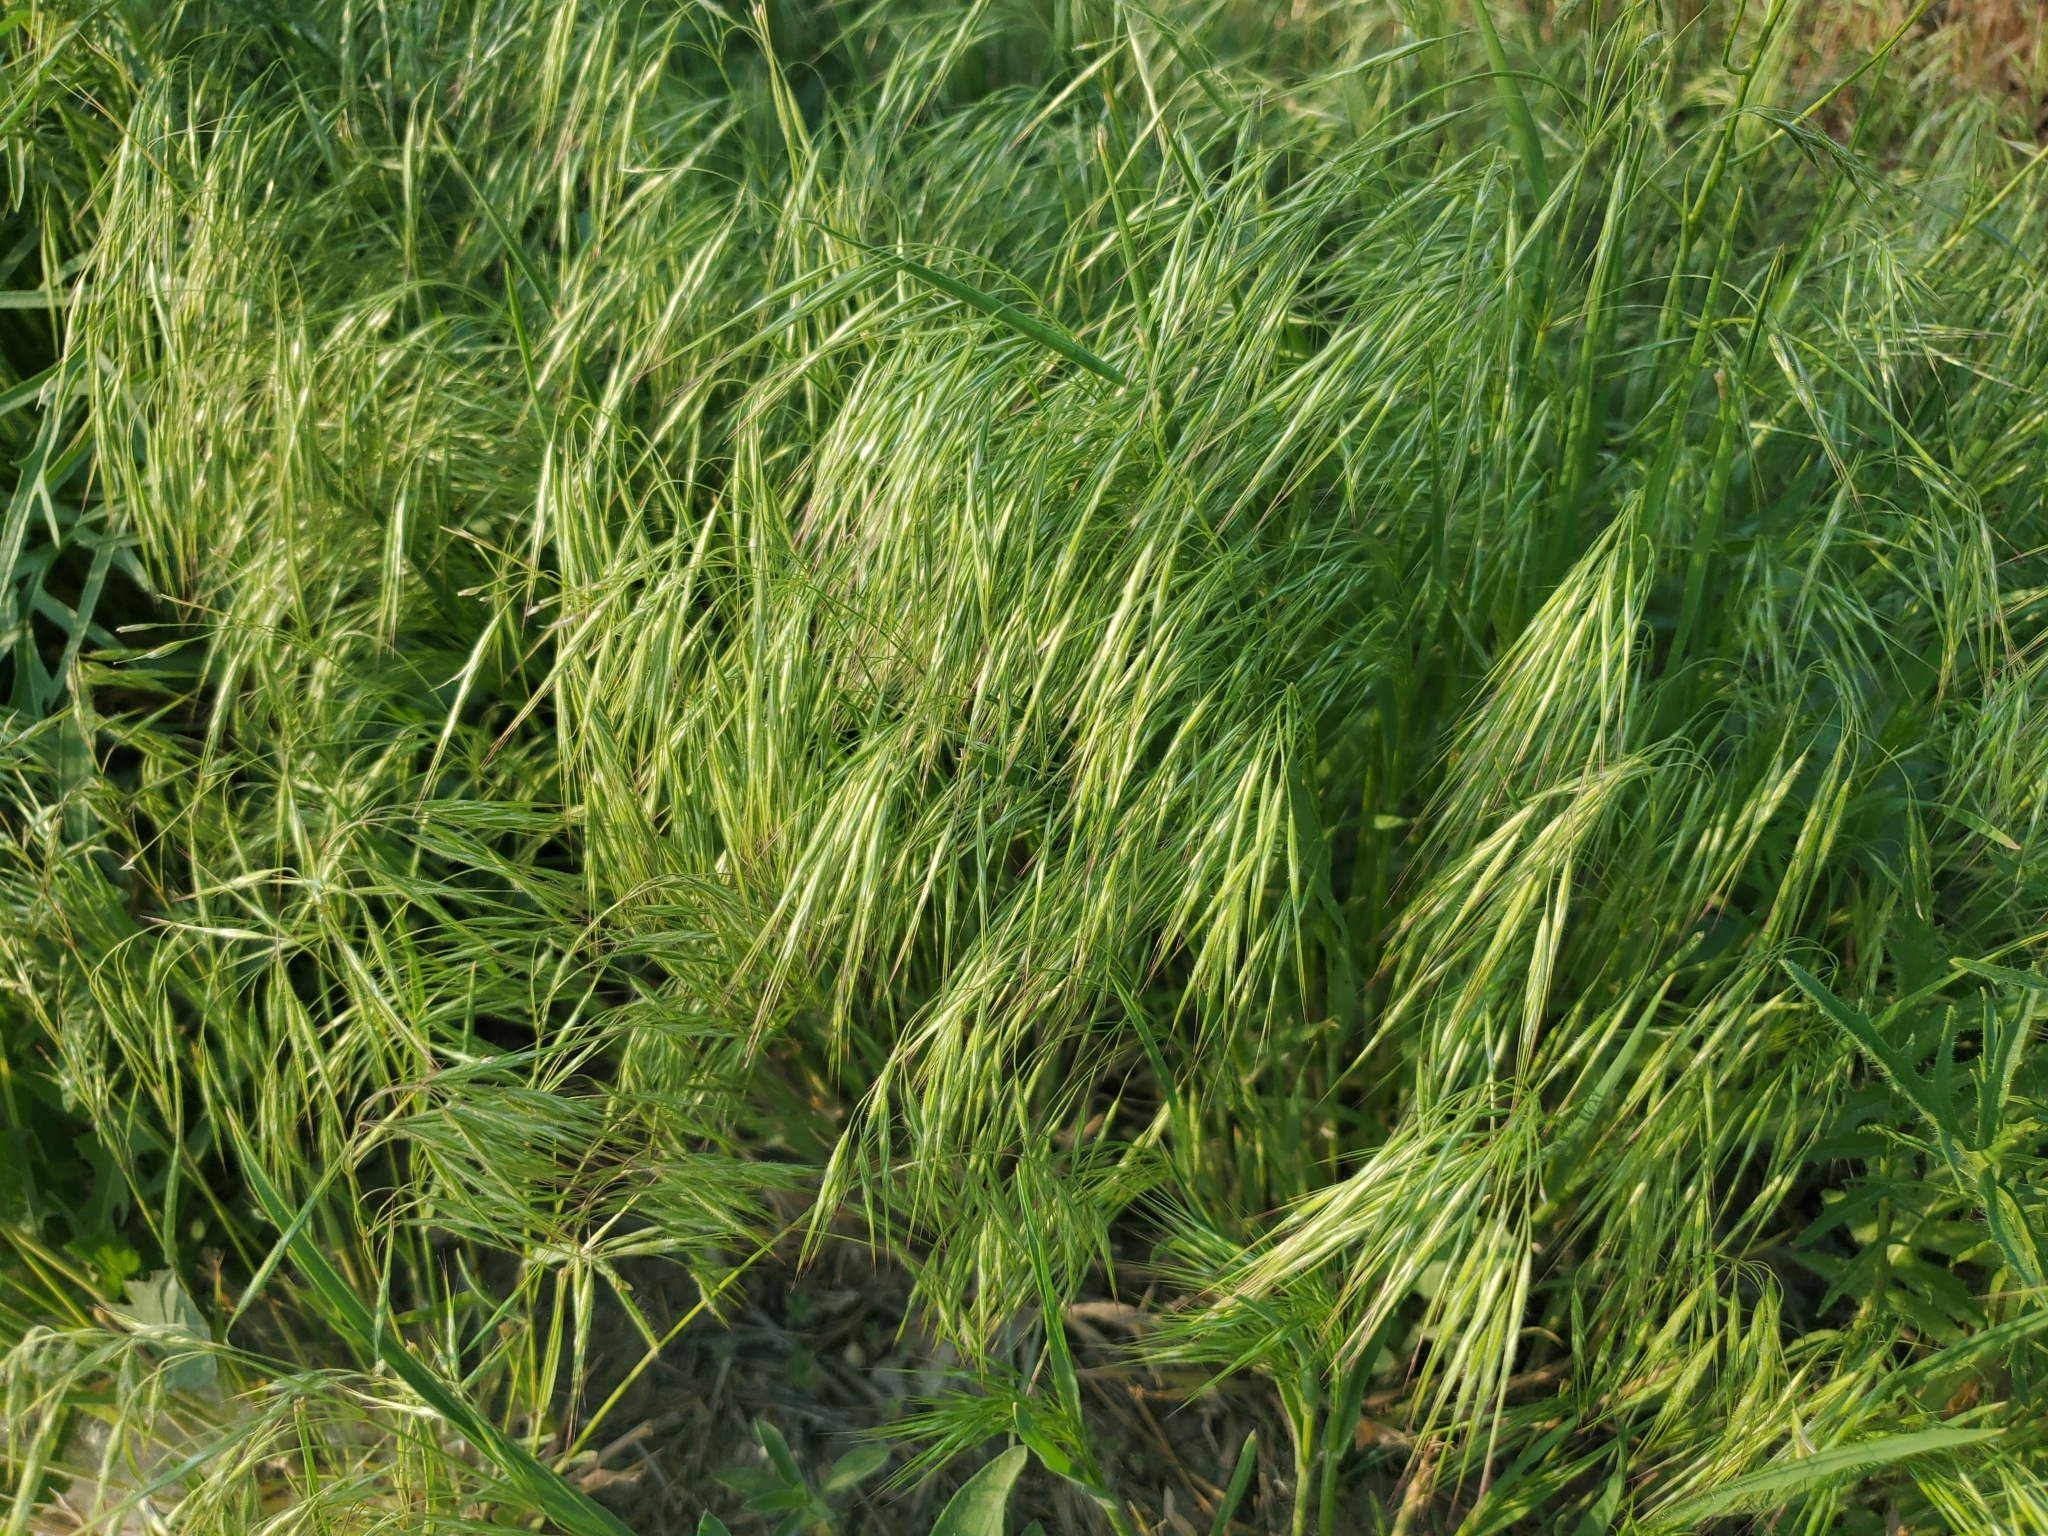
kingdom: Plantae
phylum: Tracheophyta
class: Liliopsida
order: Poales
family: Poaceae
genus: Bromus
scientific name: Bromus tectorum
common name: Cheatgrass
